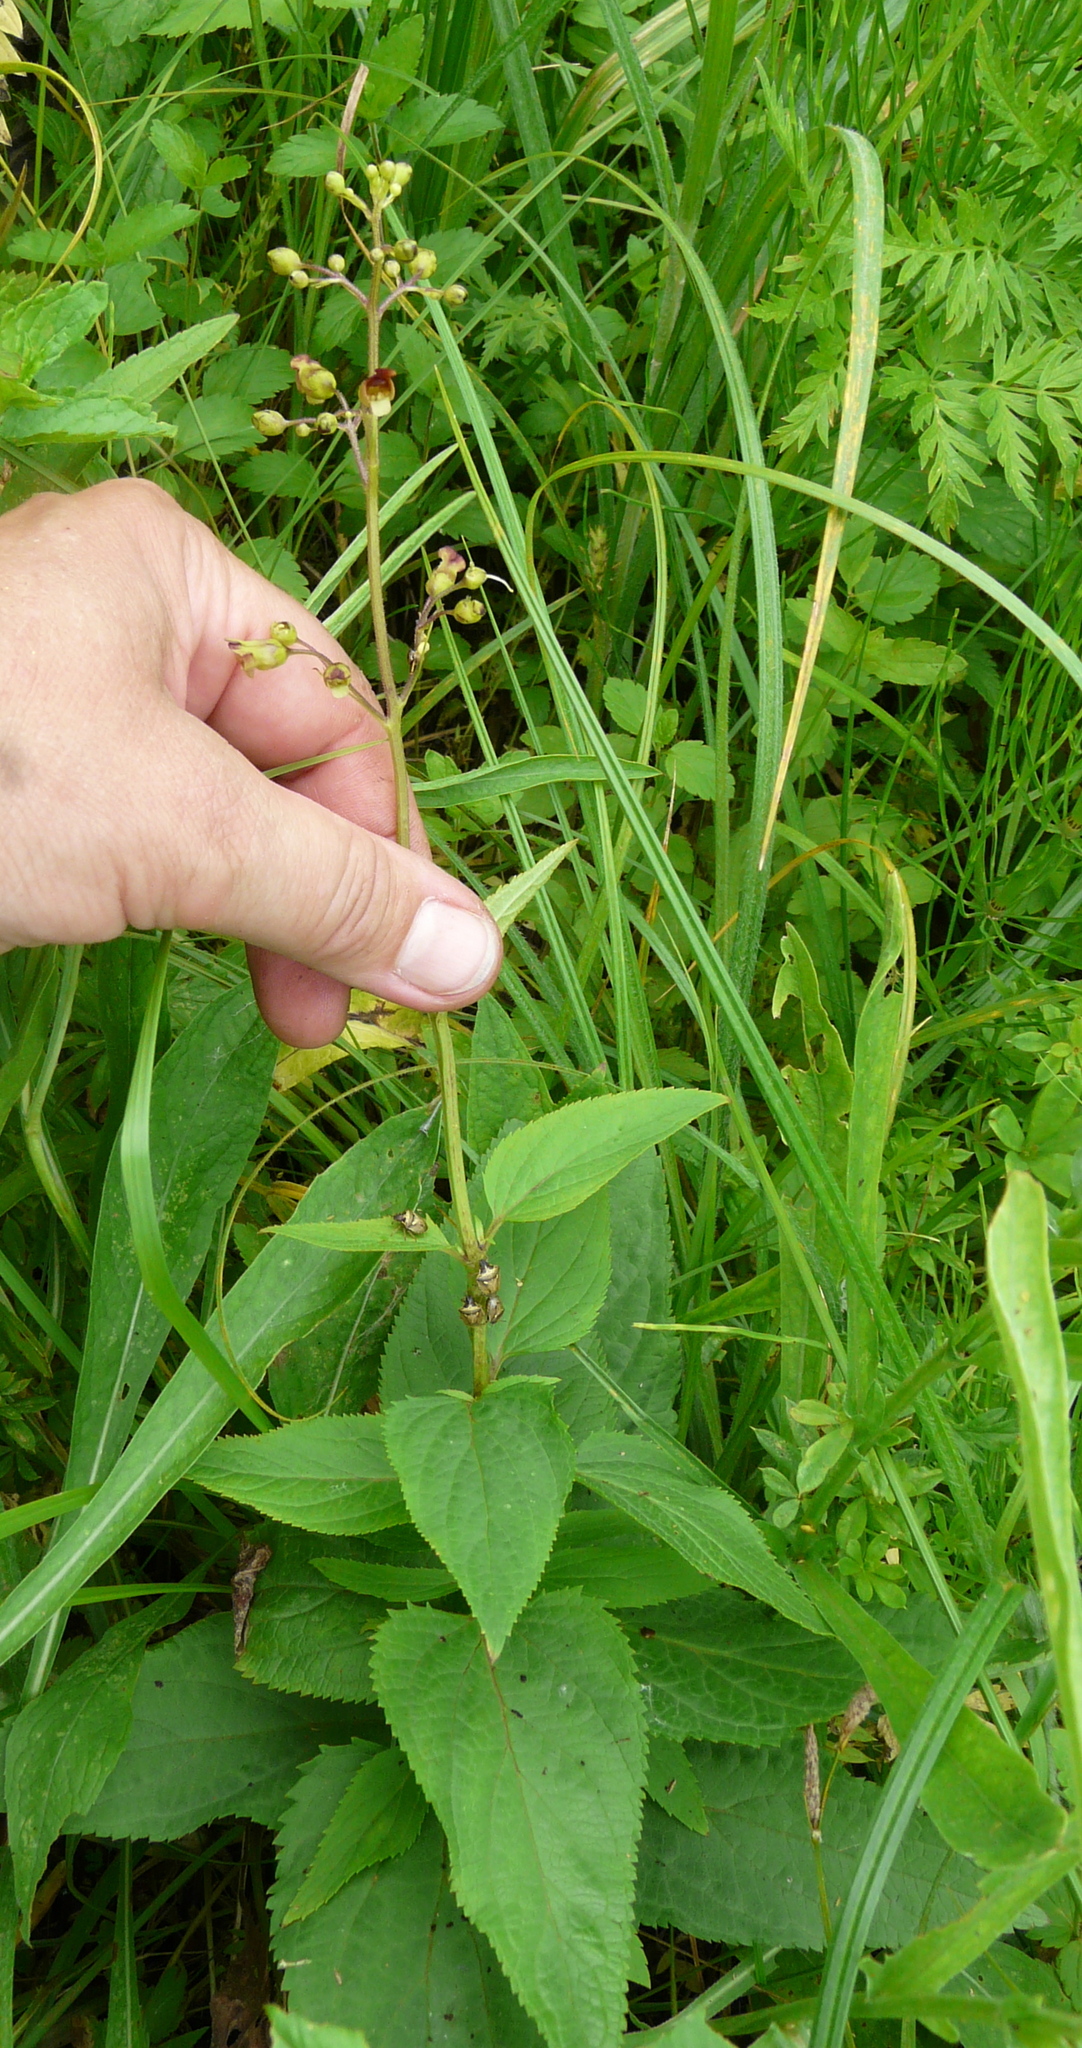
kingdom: Plantae
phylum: Tracheophyta
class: Magnoliopsida
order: Lamiales
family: Scrophulariaceae
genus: Scrophularia
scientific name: Scrophularia nodosa
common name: Common figwort
